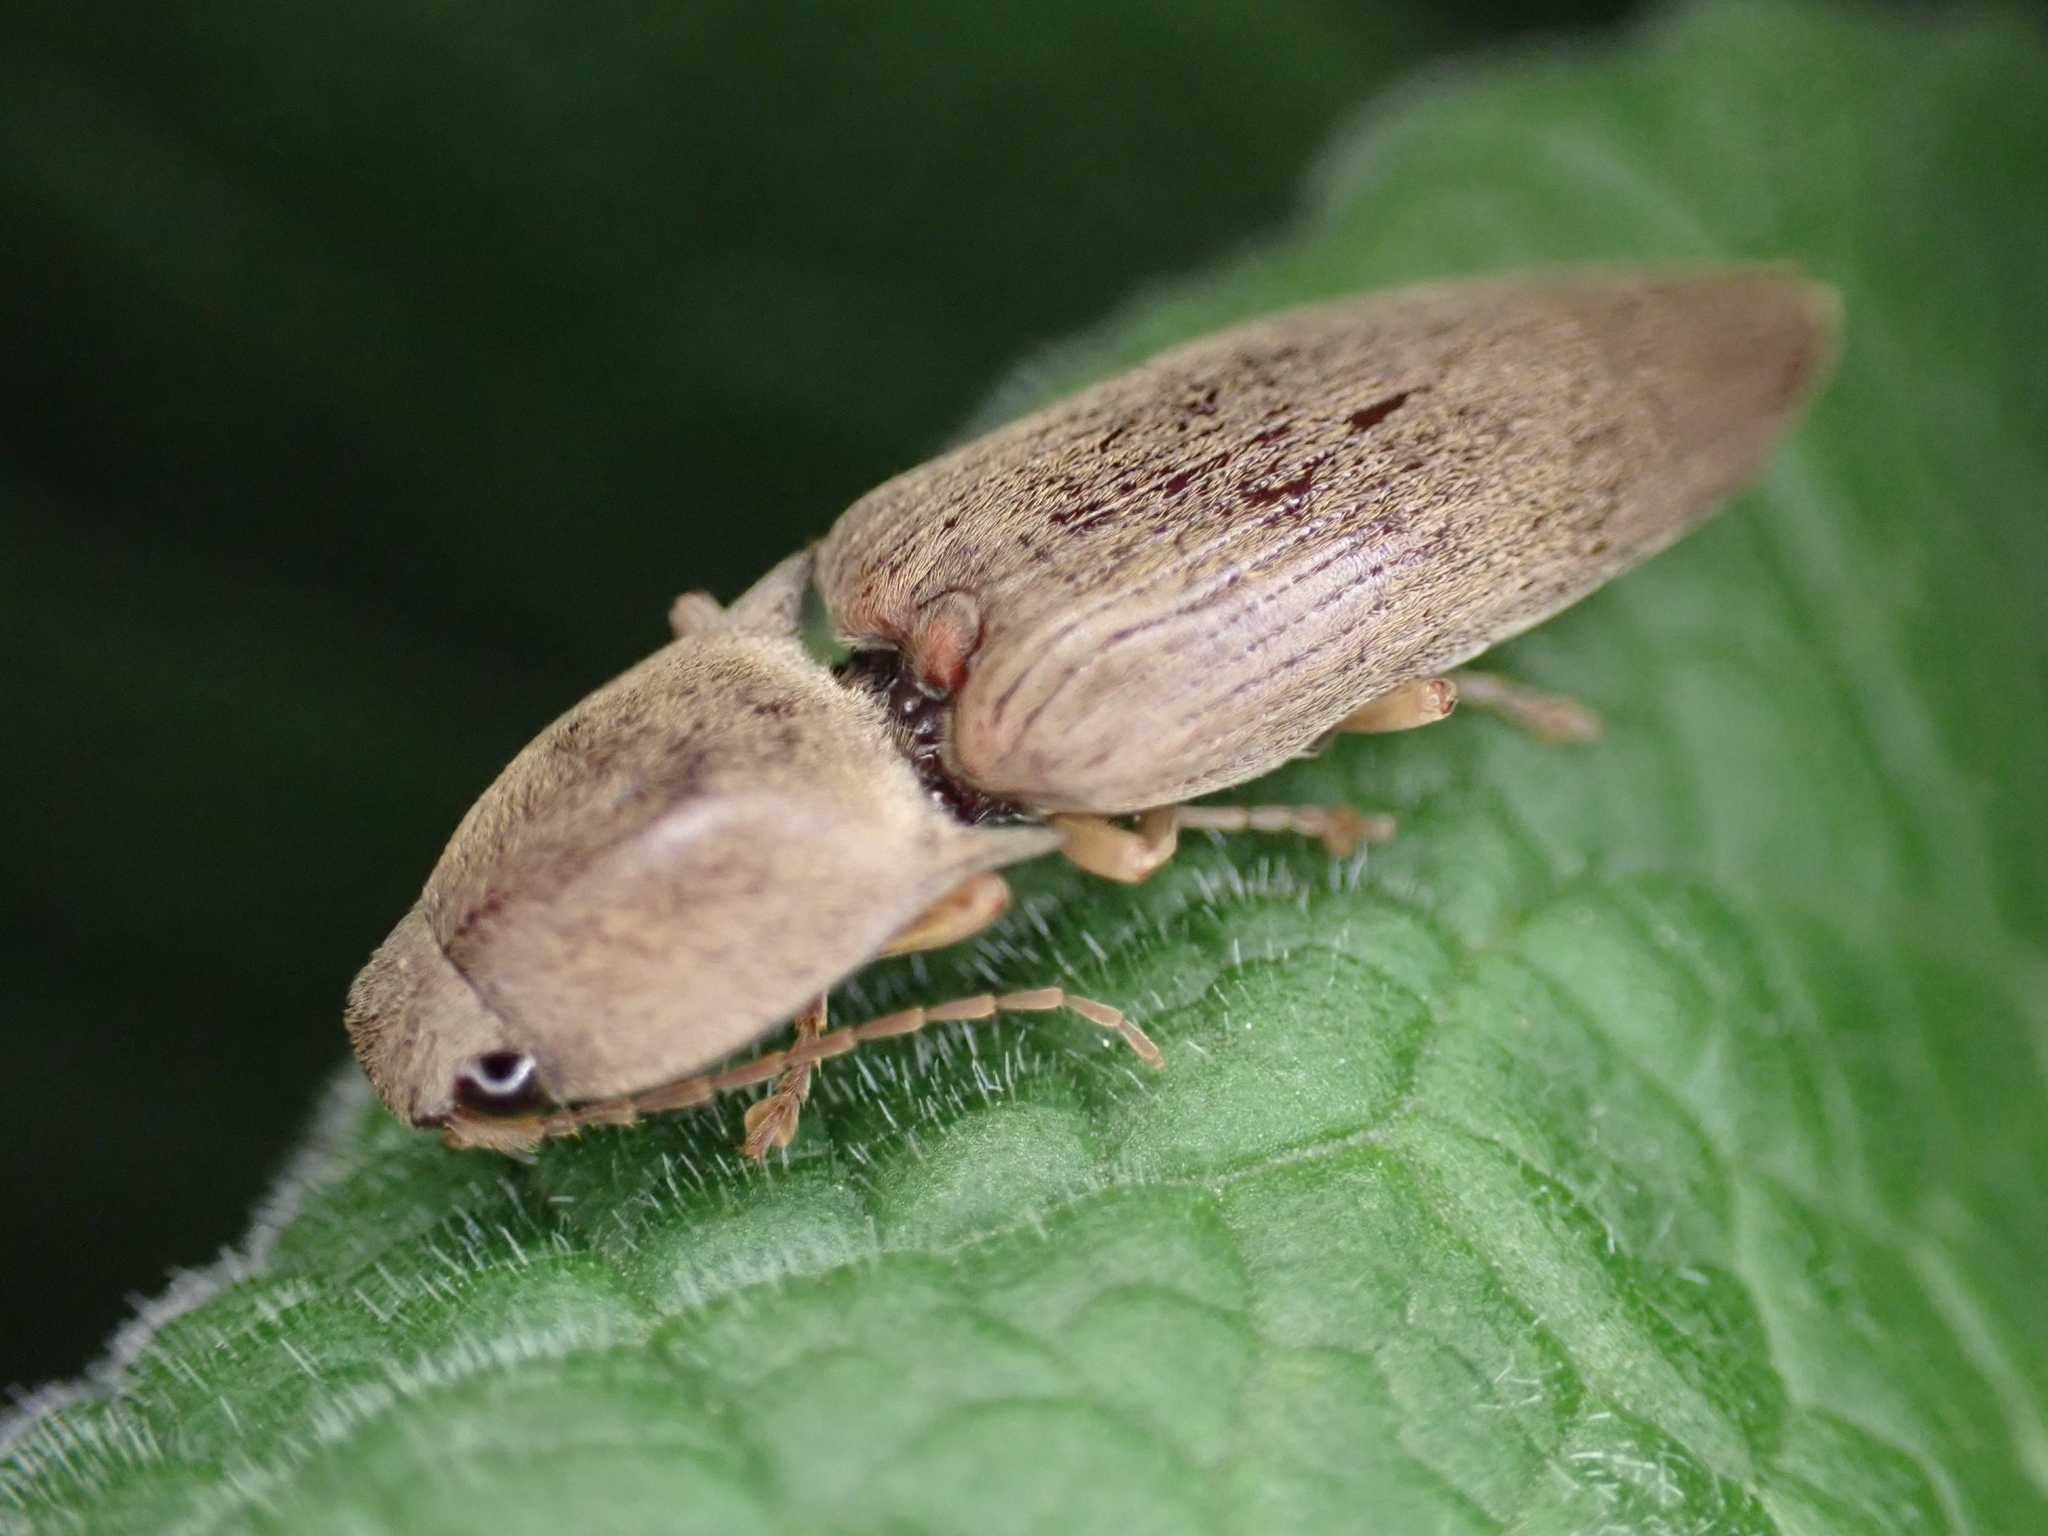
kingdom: Animalia
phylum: Arthropoda
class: Insecta
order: Coleoptera
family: Elateridae
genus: Monocrepidius
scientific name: Monocrepidius lividus
